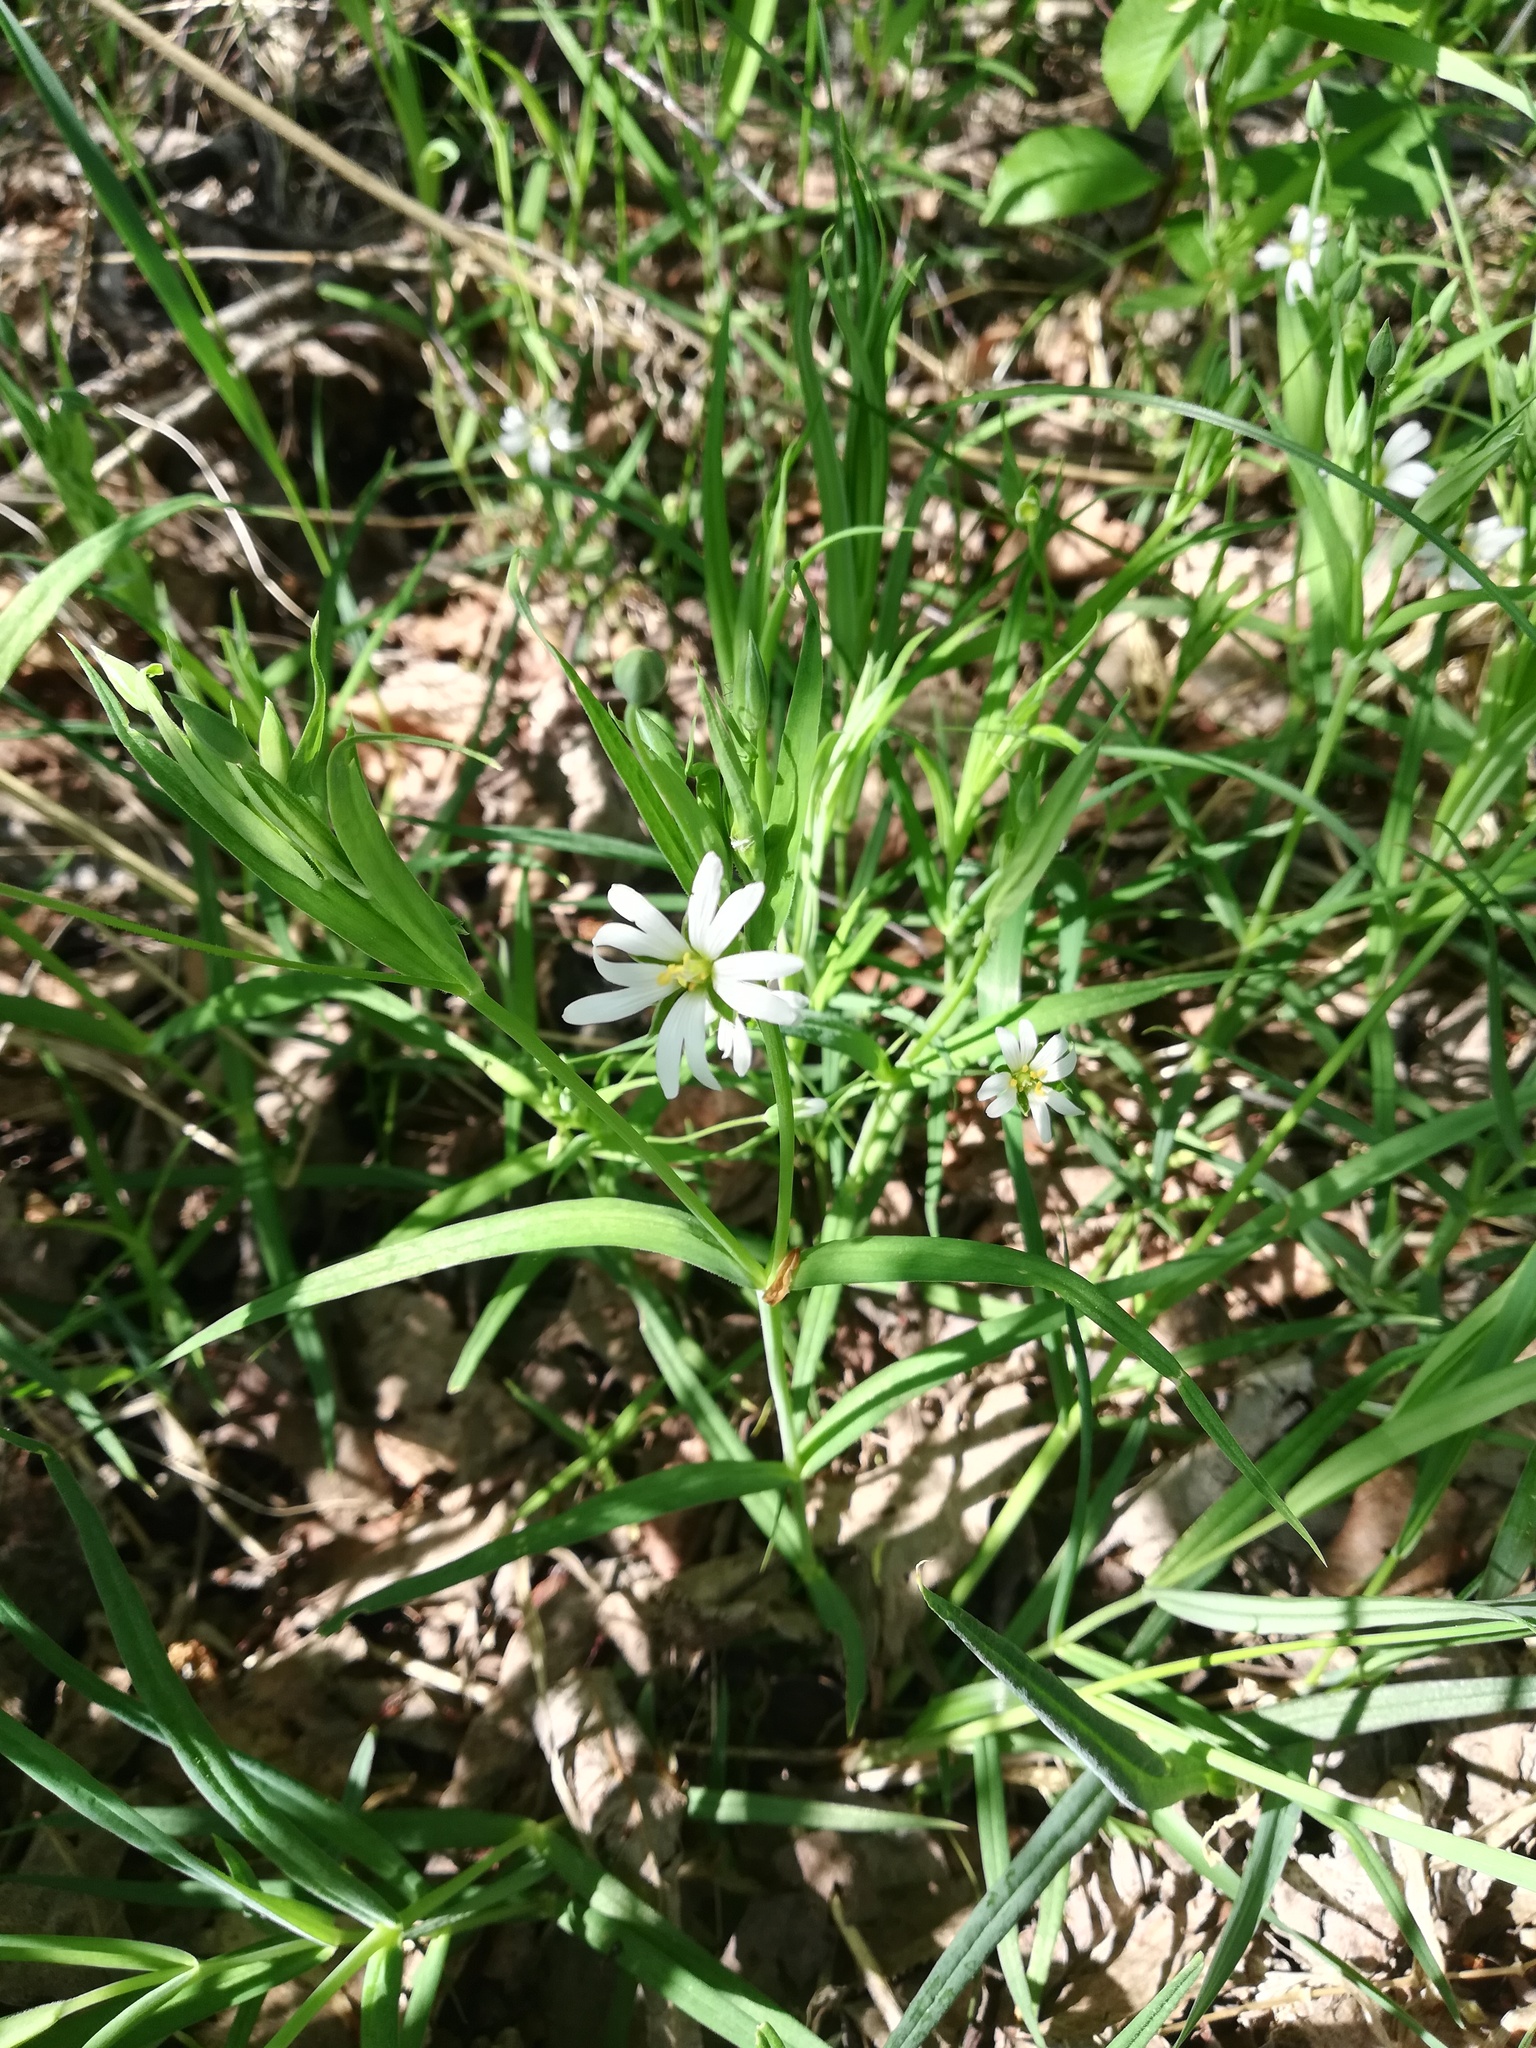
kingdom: Plantae
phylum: Tracheophyta
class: Magnoliopsida
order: Caryophyllales
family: Caryophyllaceae
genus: Rabelera
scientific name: Rabelera holostea
